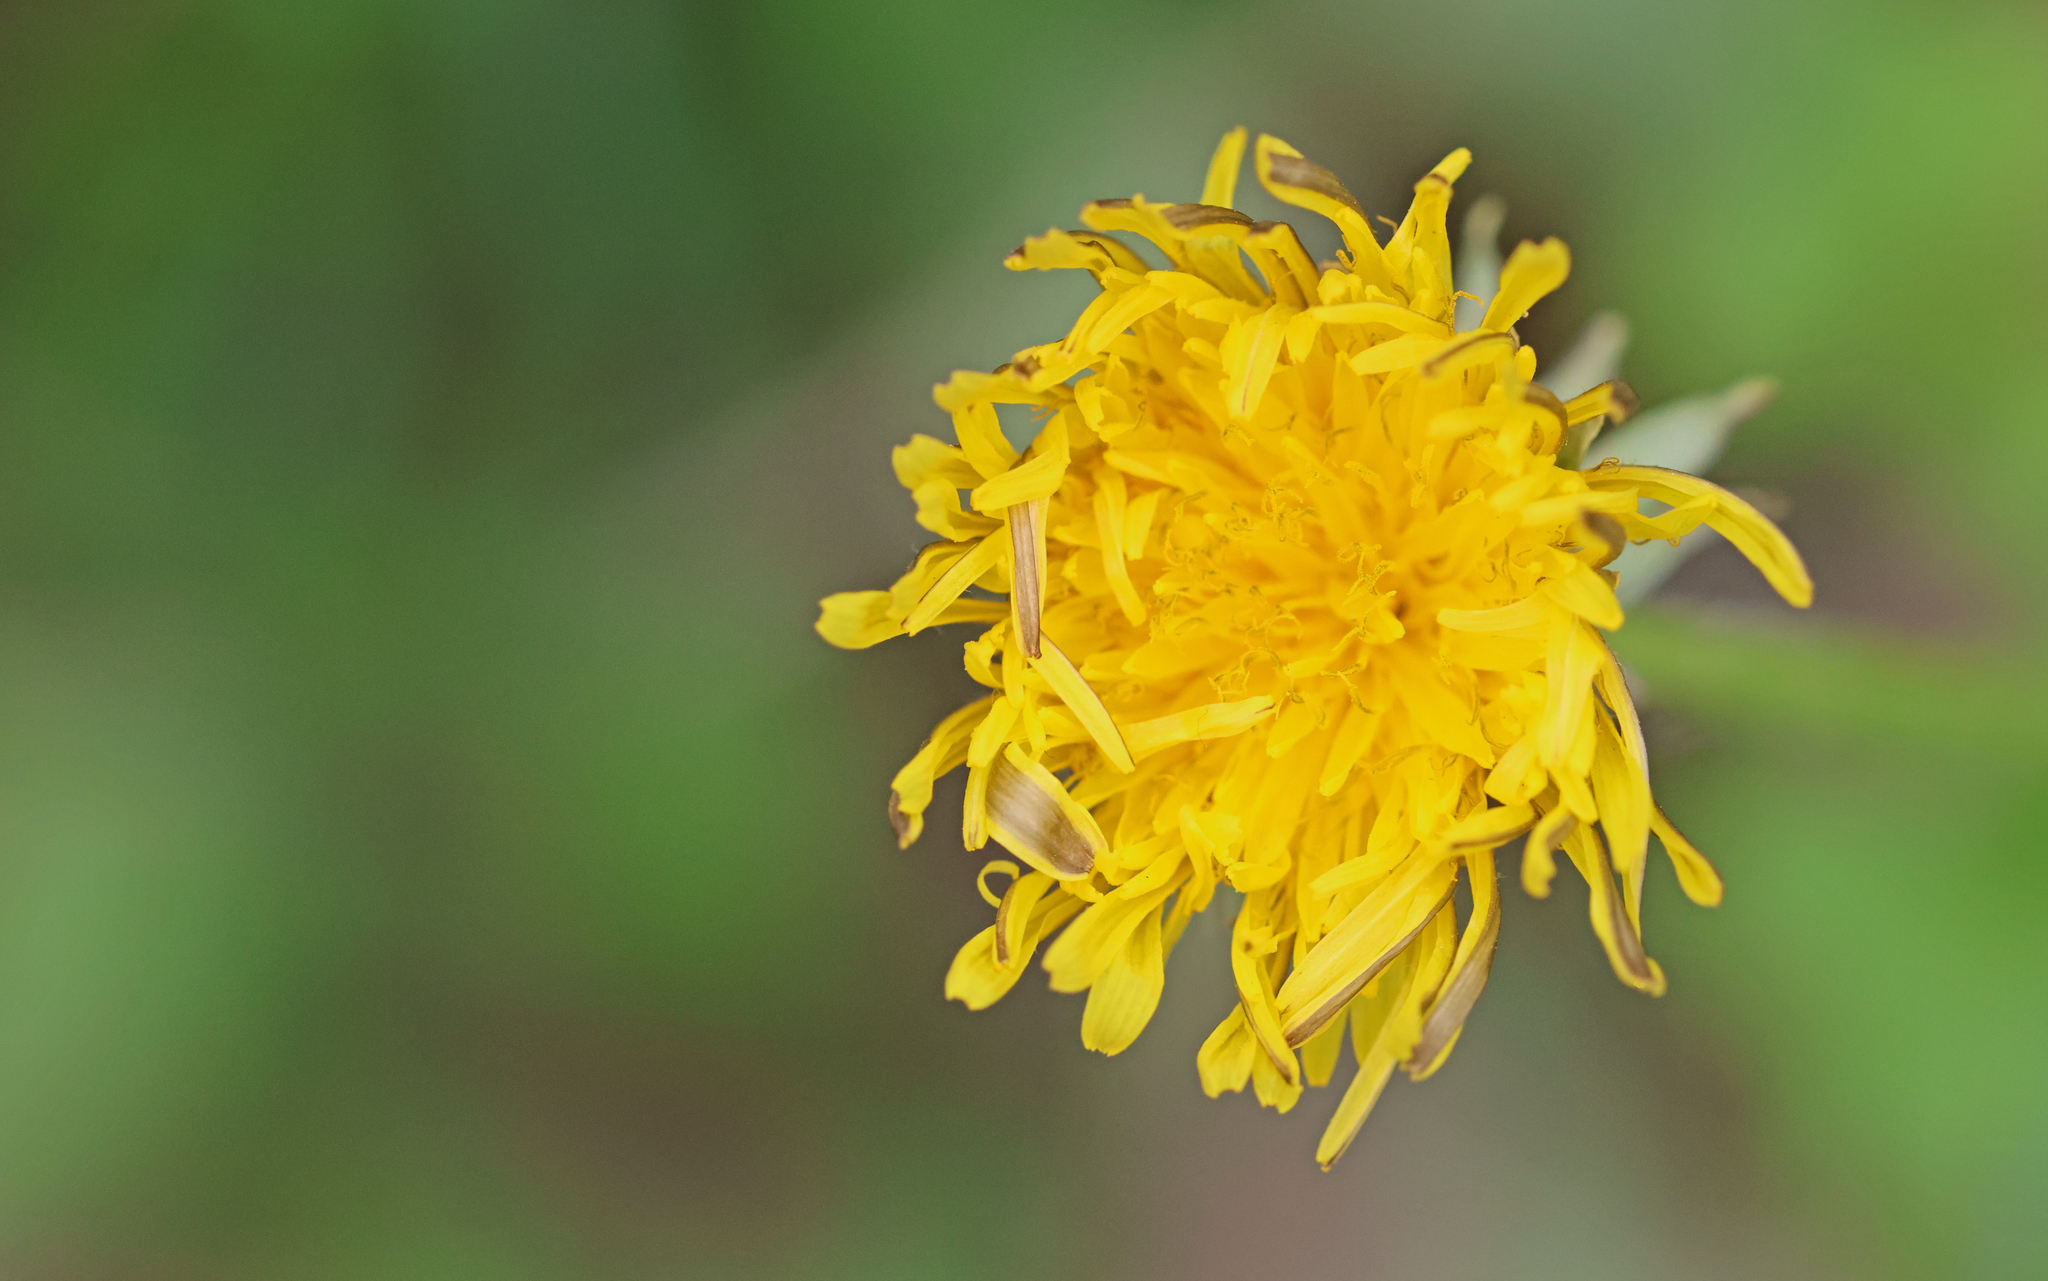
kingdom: Plantae
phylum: Tracheophyta
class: Magnoliopsida
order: Asterales
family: Asteraceae
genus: Taraxacum
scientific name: Taraxacum officinale
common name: Common dandelion
